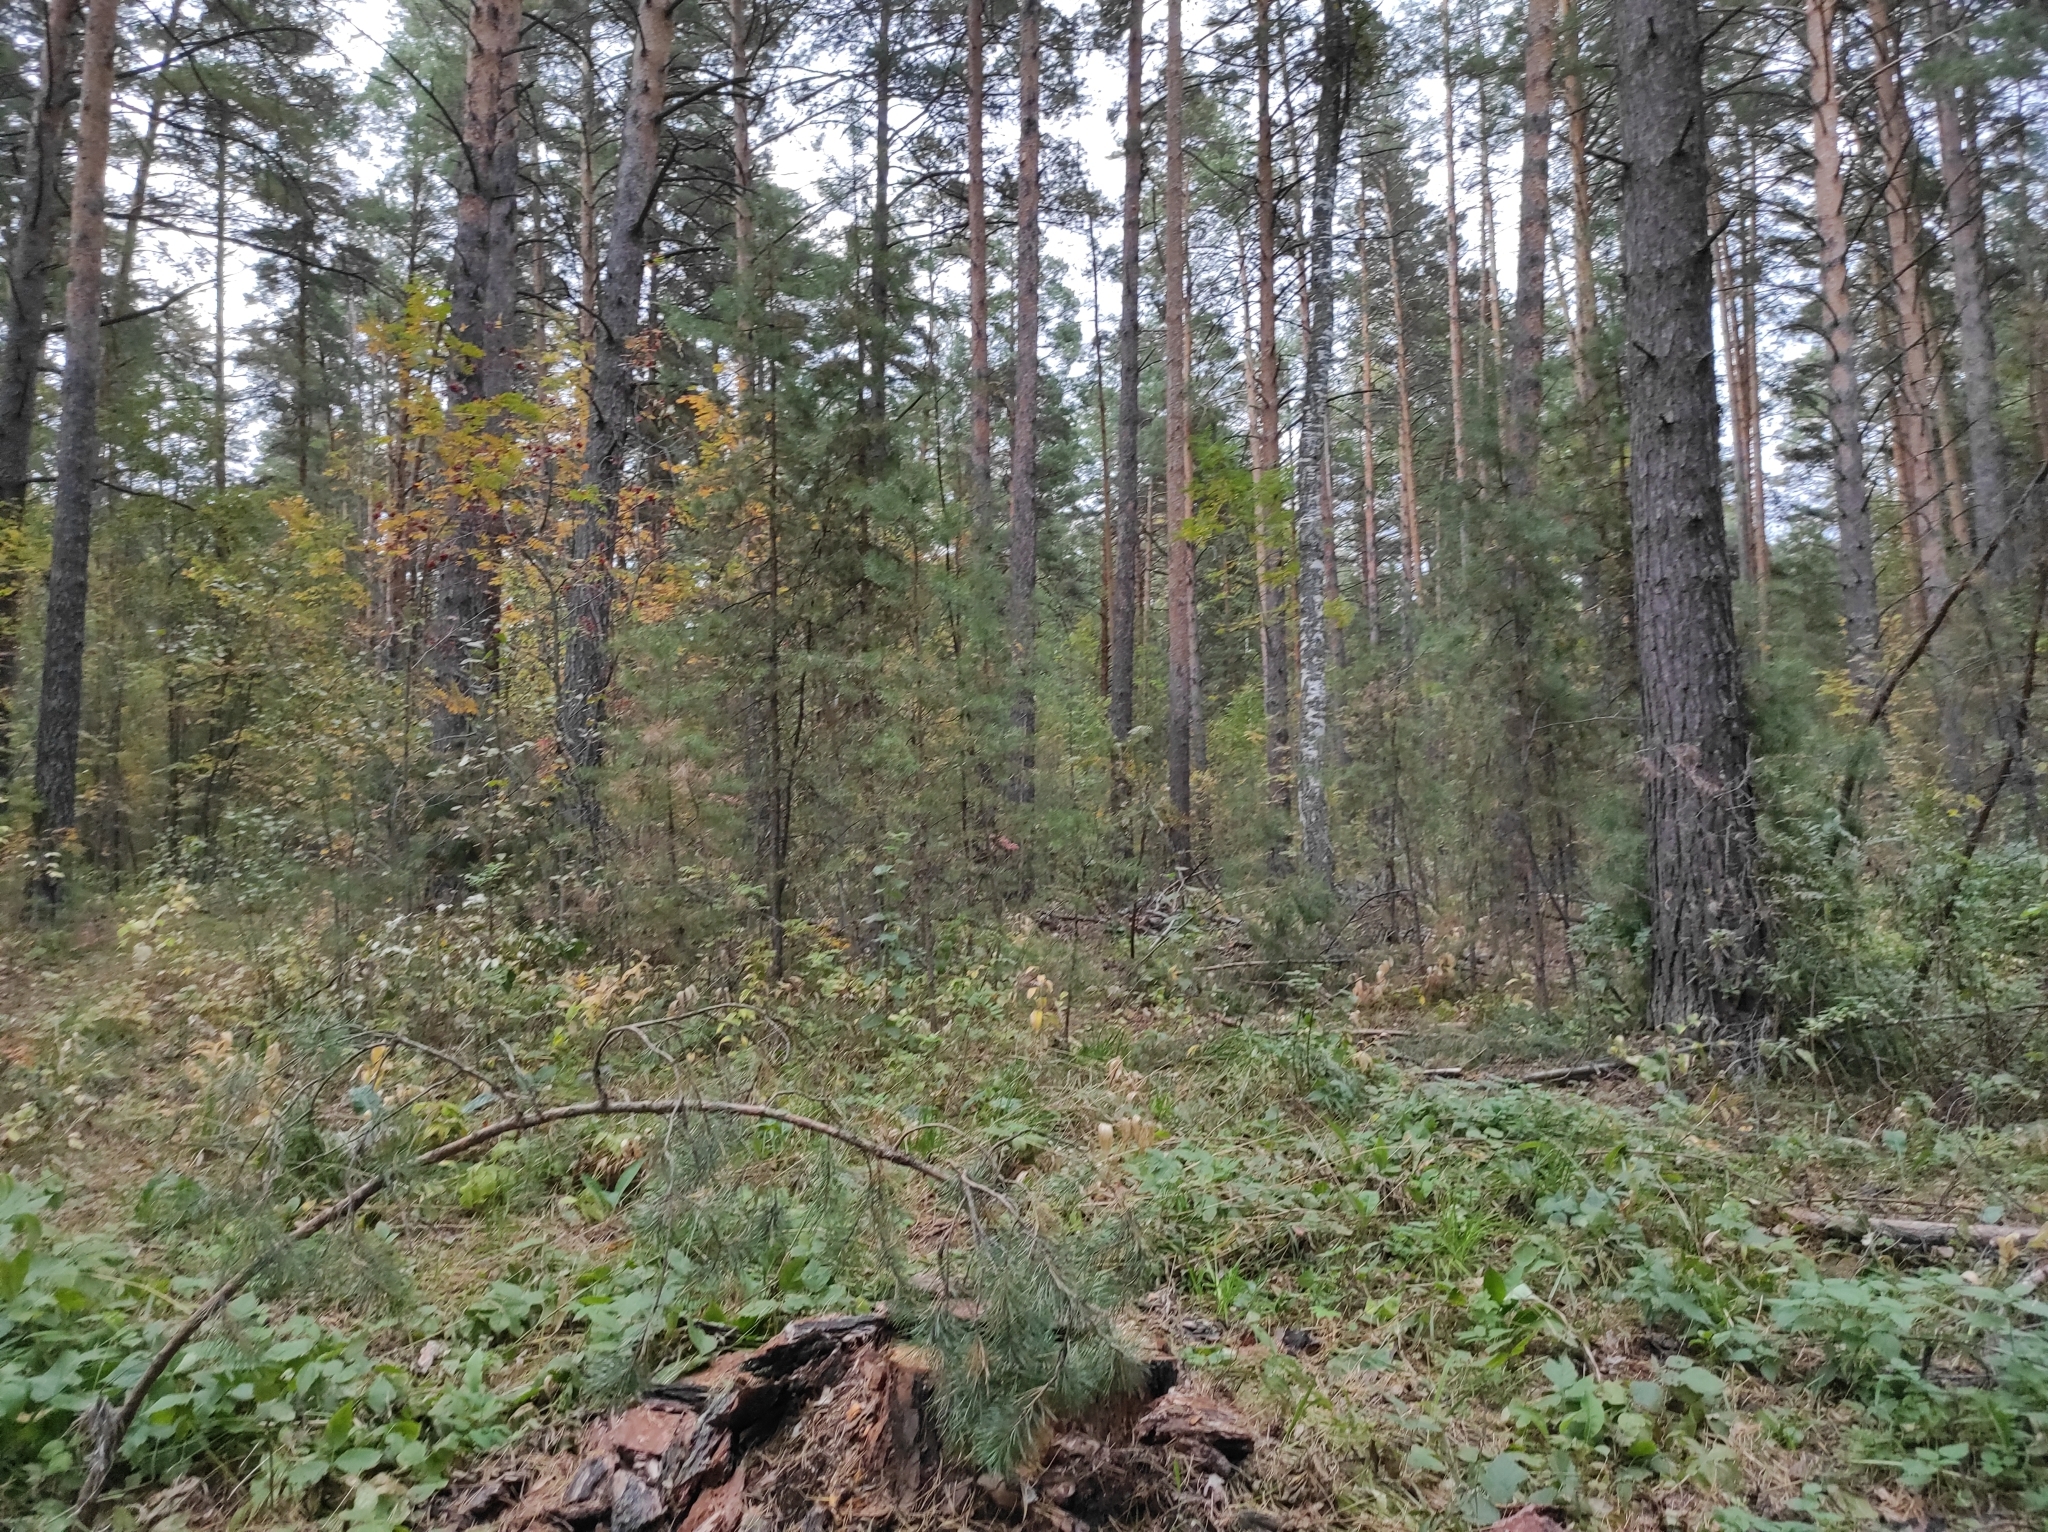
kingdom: Plantae
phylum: Tracheophyta
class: Pinopsida
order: Pinales
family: Pinaceae
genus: Pinus
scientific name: Pinus sylvestris
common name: Scots pine
